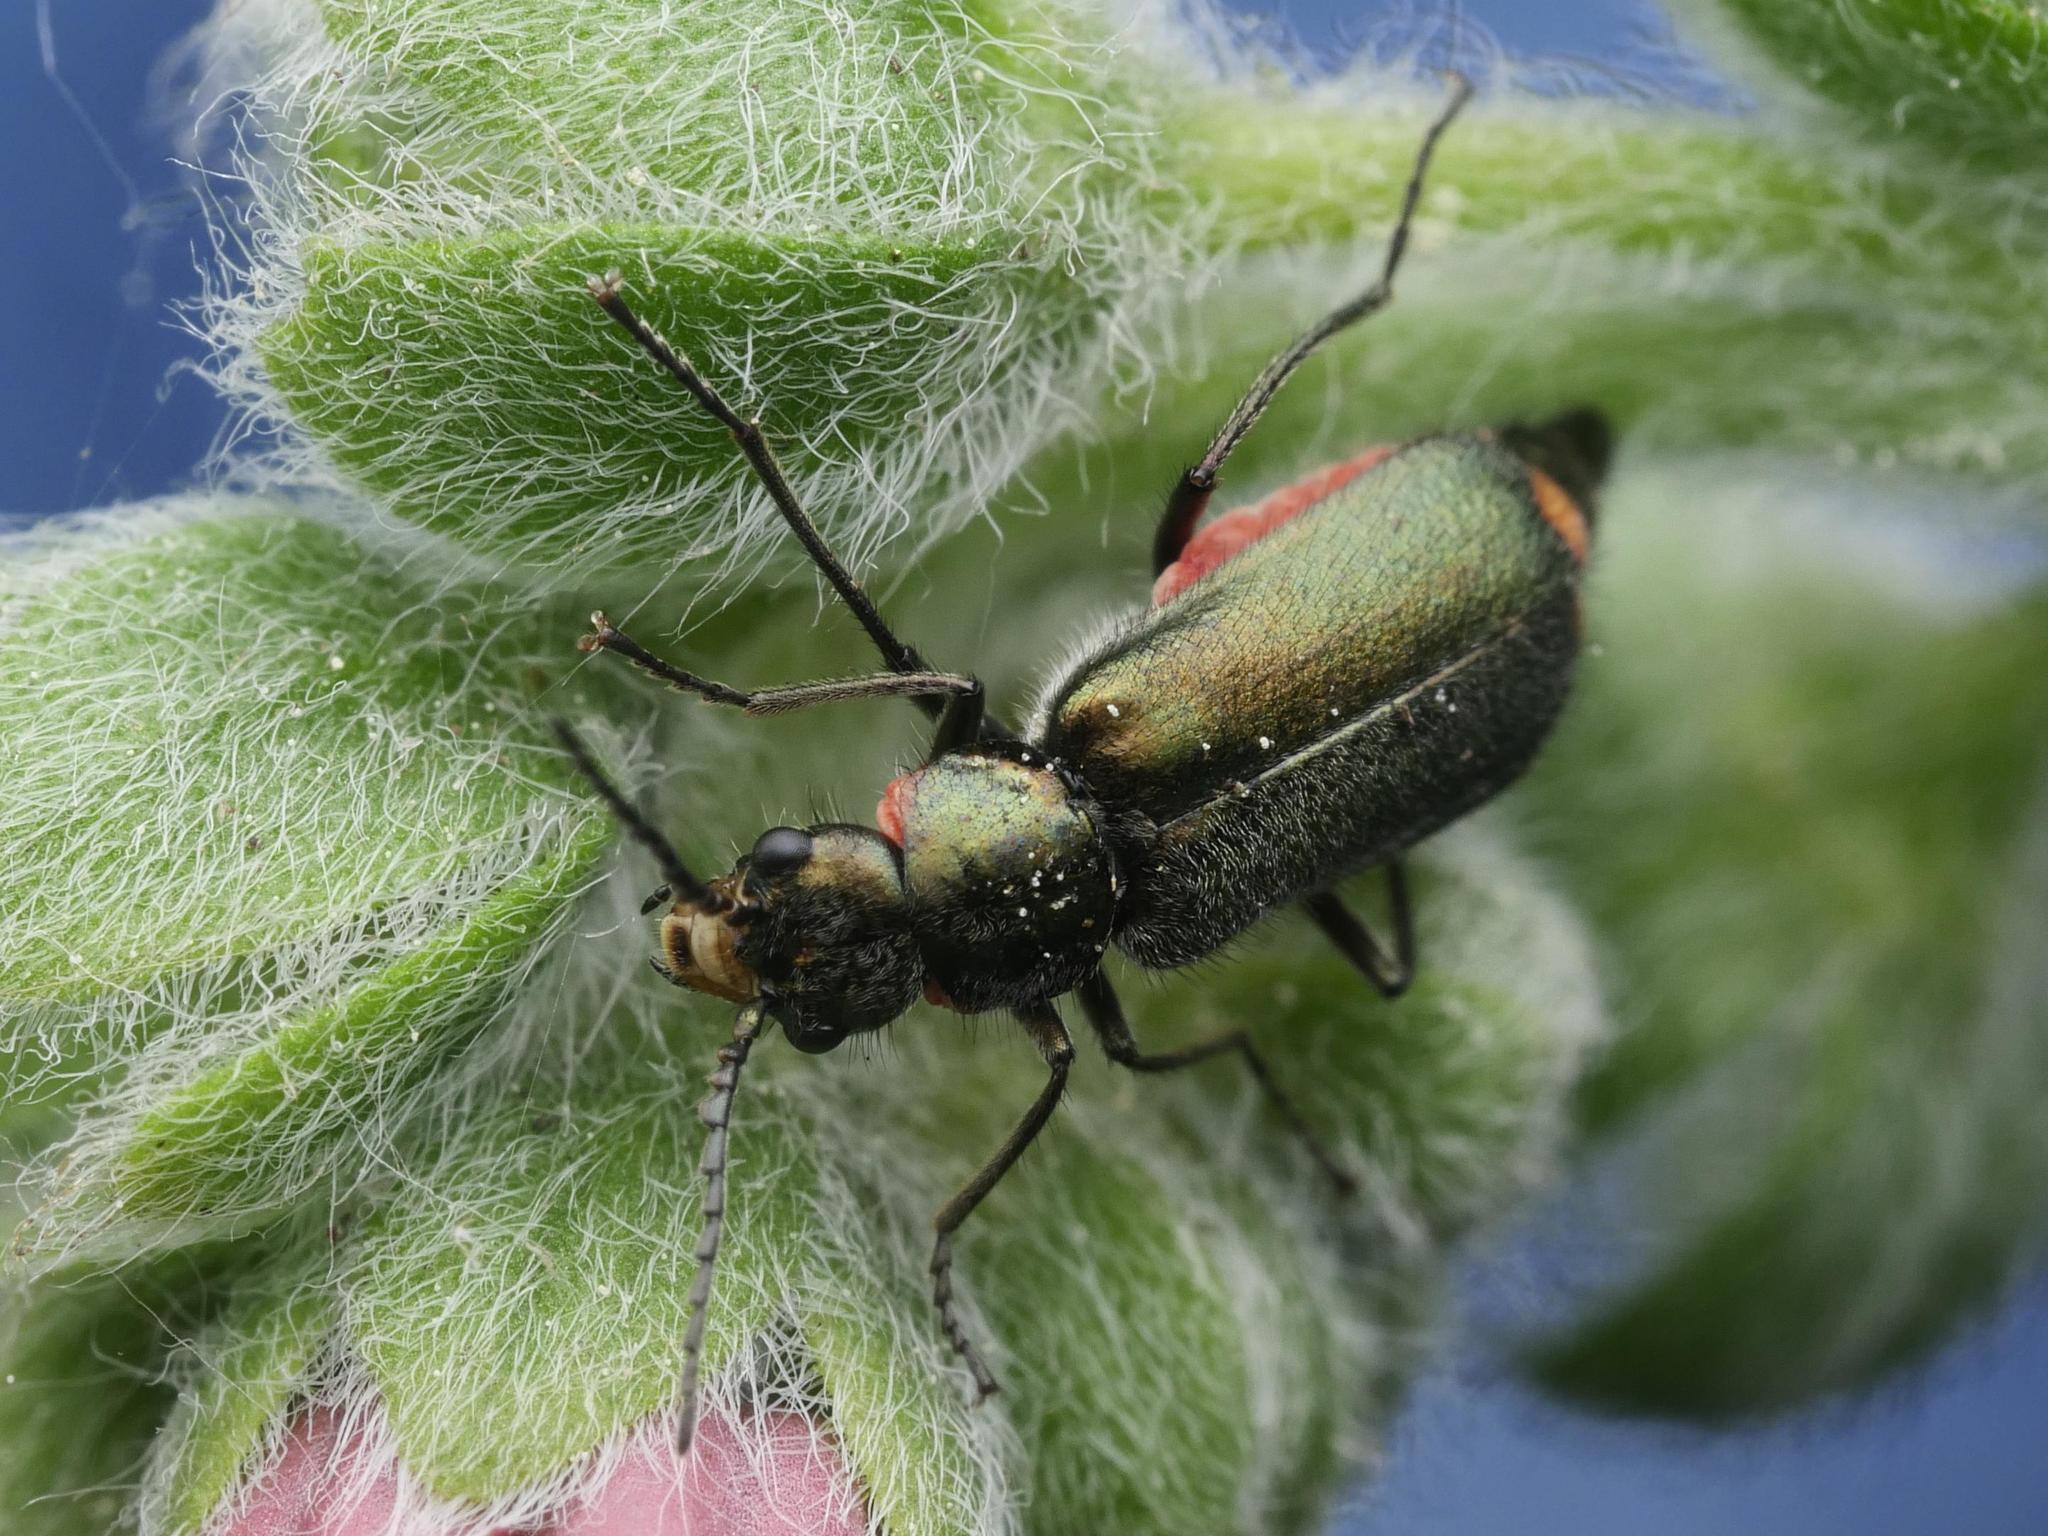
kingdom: Animalia
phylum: Arthropoda
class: Insecta
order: Coleoptera
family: Melyridae
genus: Malachius
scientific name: Malachius bipustulatus
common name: Malachite beetle
